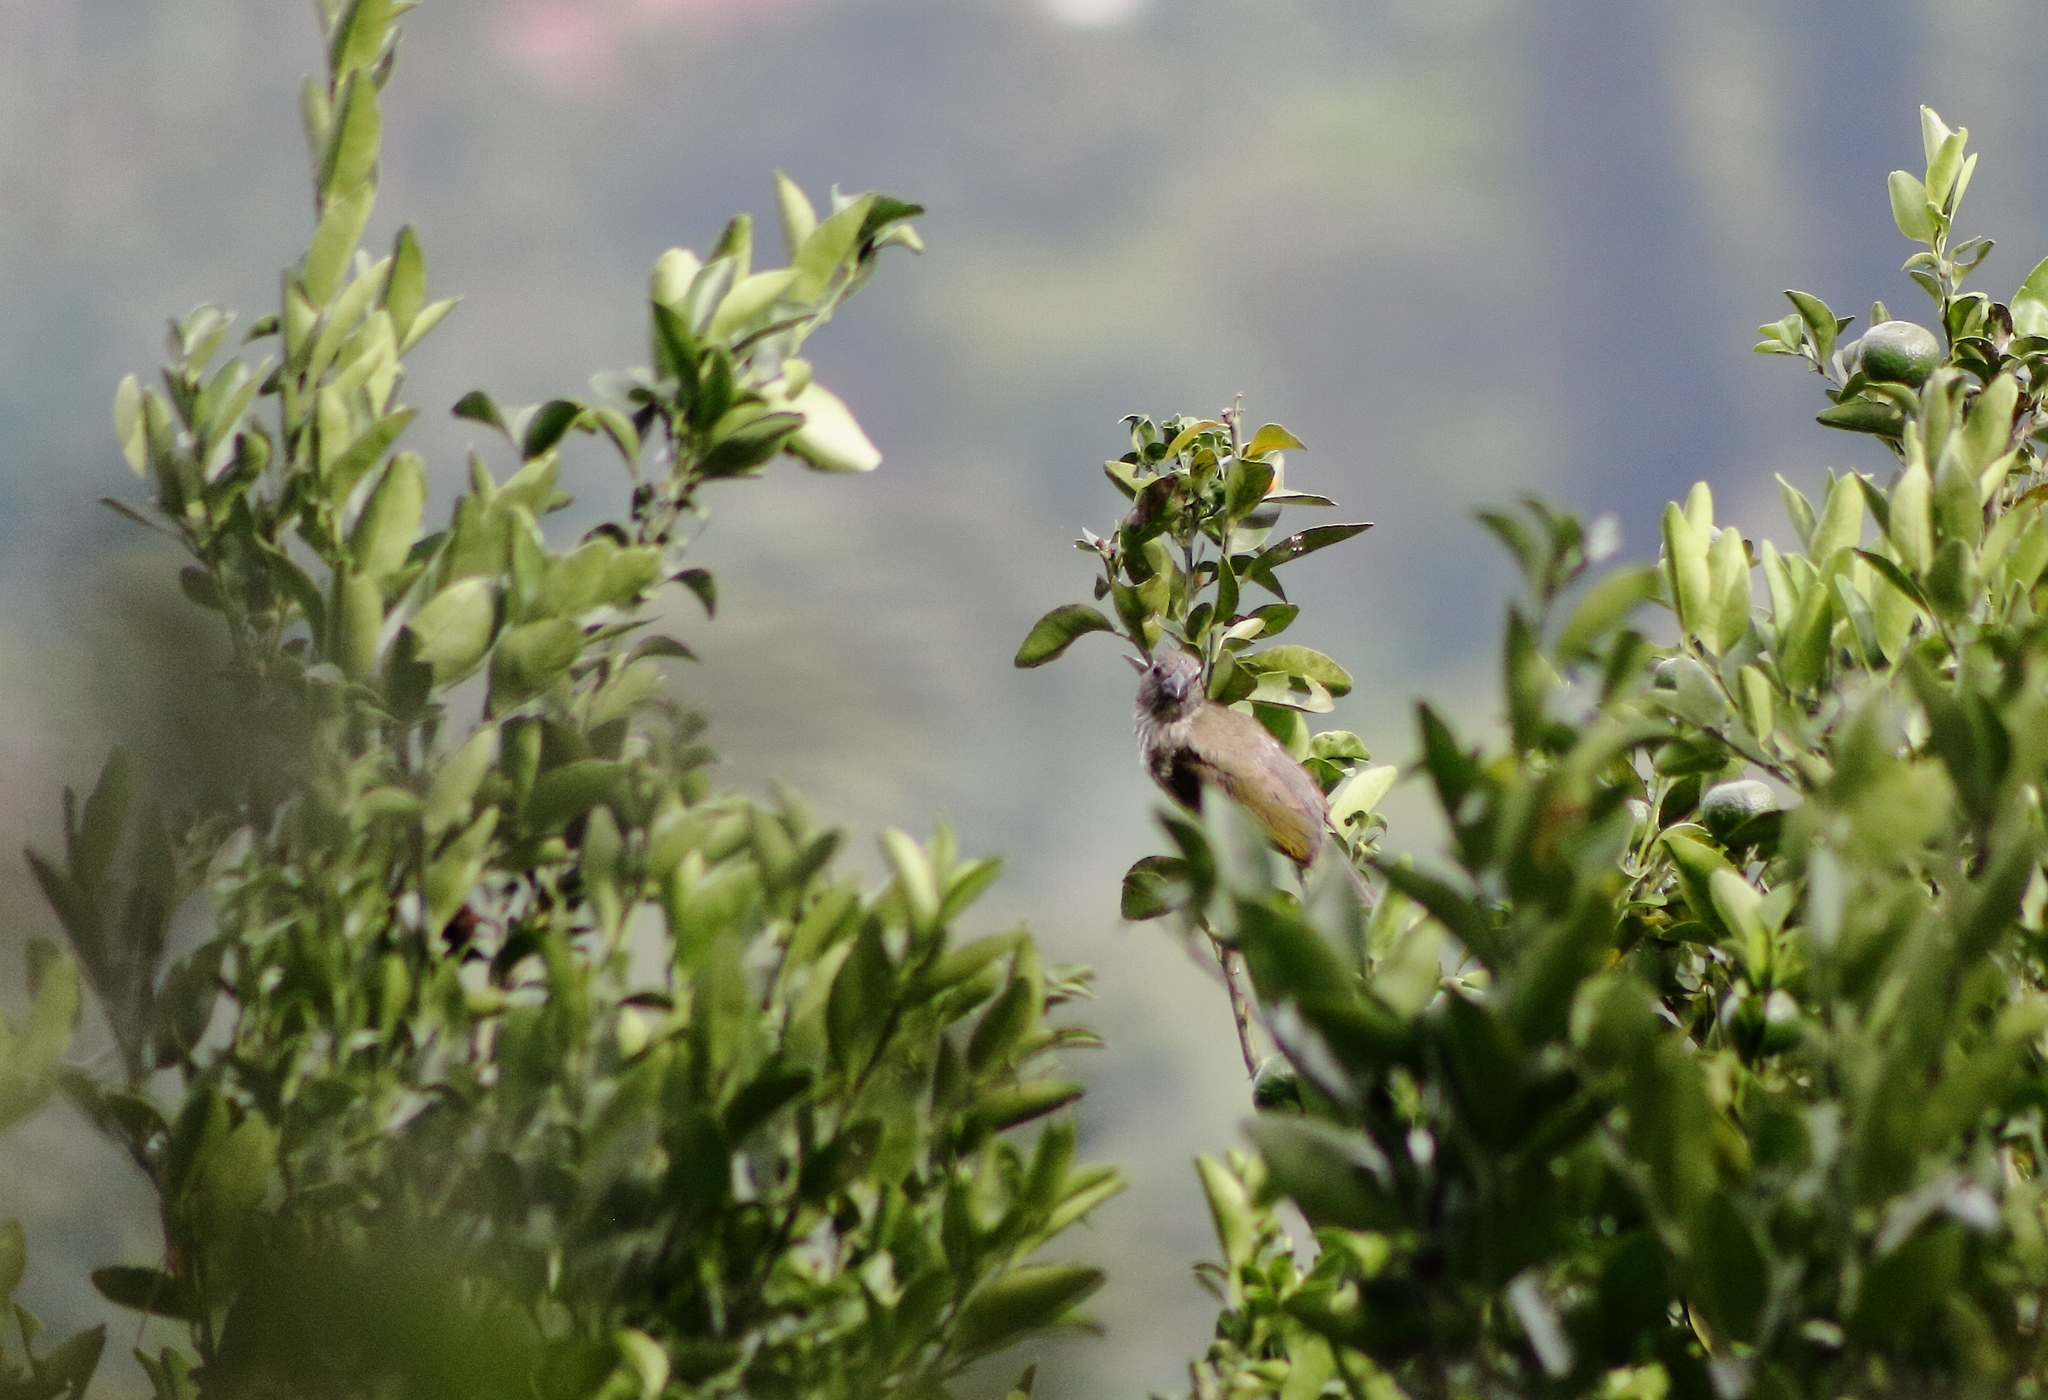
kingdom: Animalia
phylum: Chordata
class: Aves
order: Passeriformes
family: Thraupidae
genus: Saltator
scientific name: Saltator striatipectus
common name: Streaked saltator
